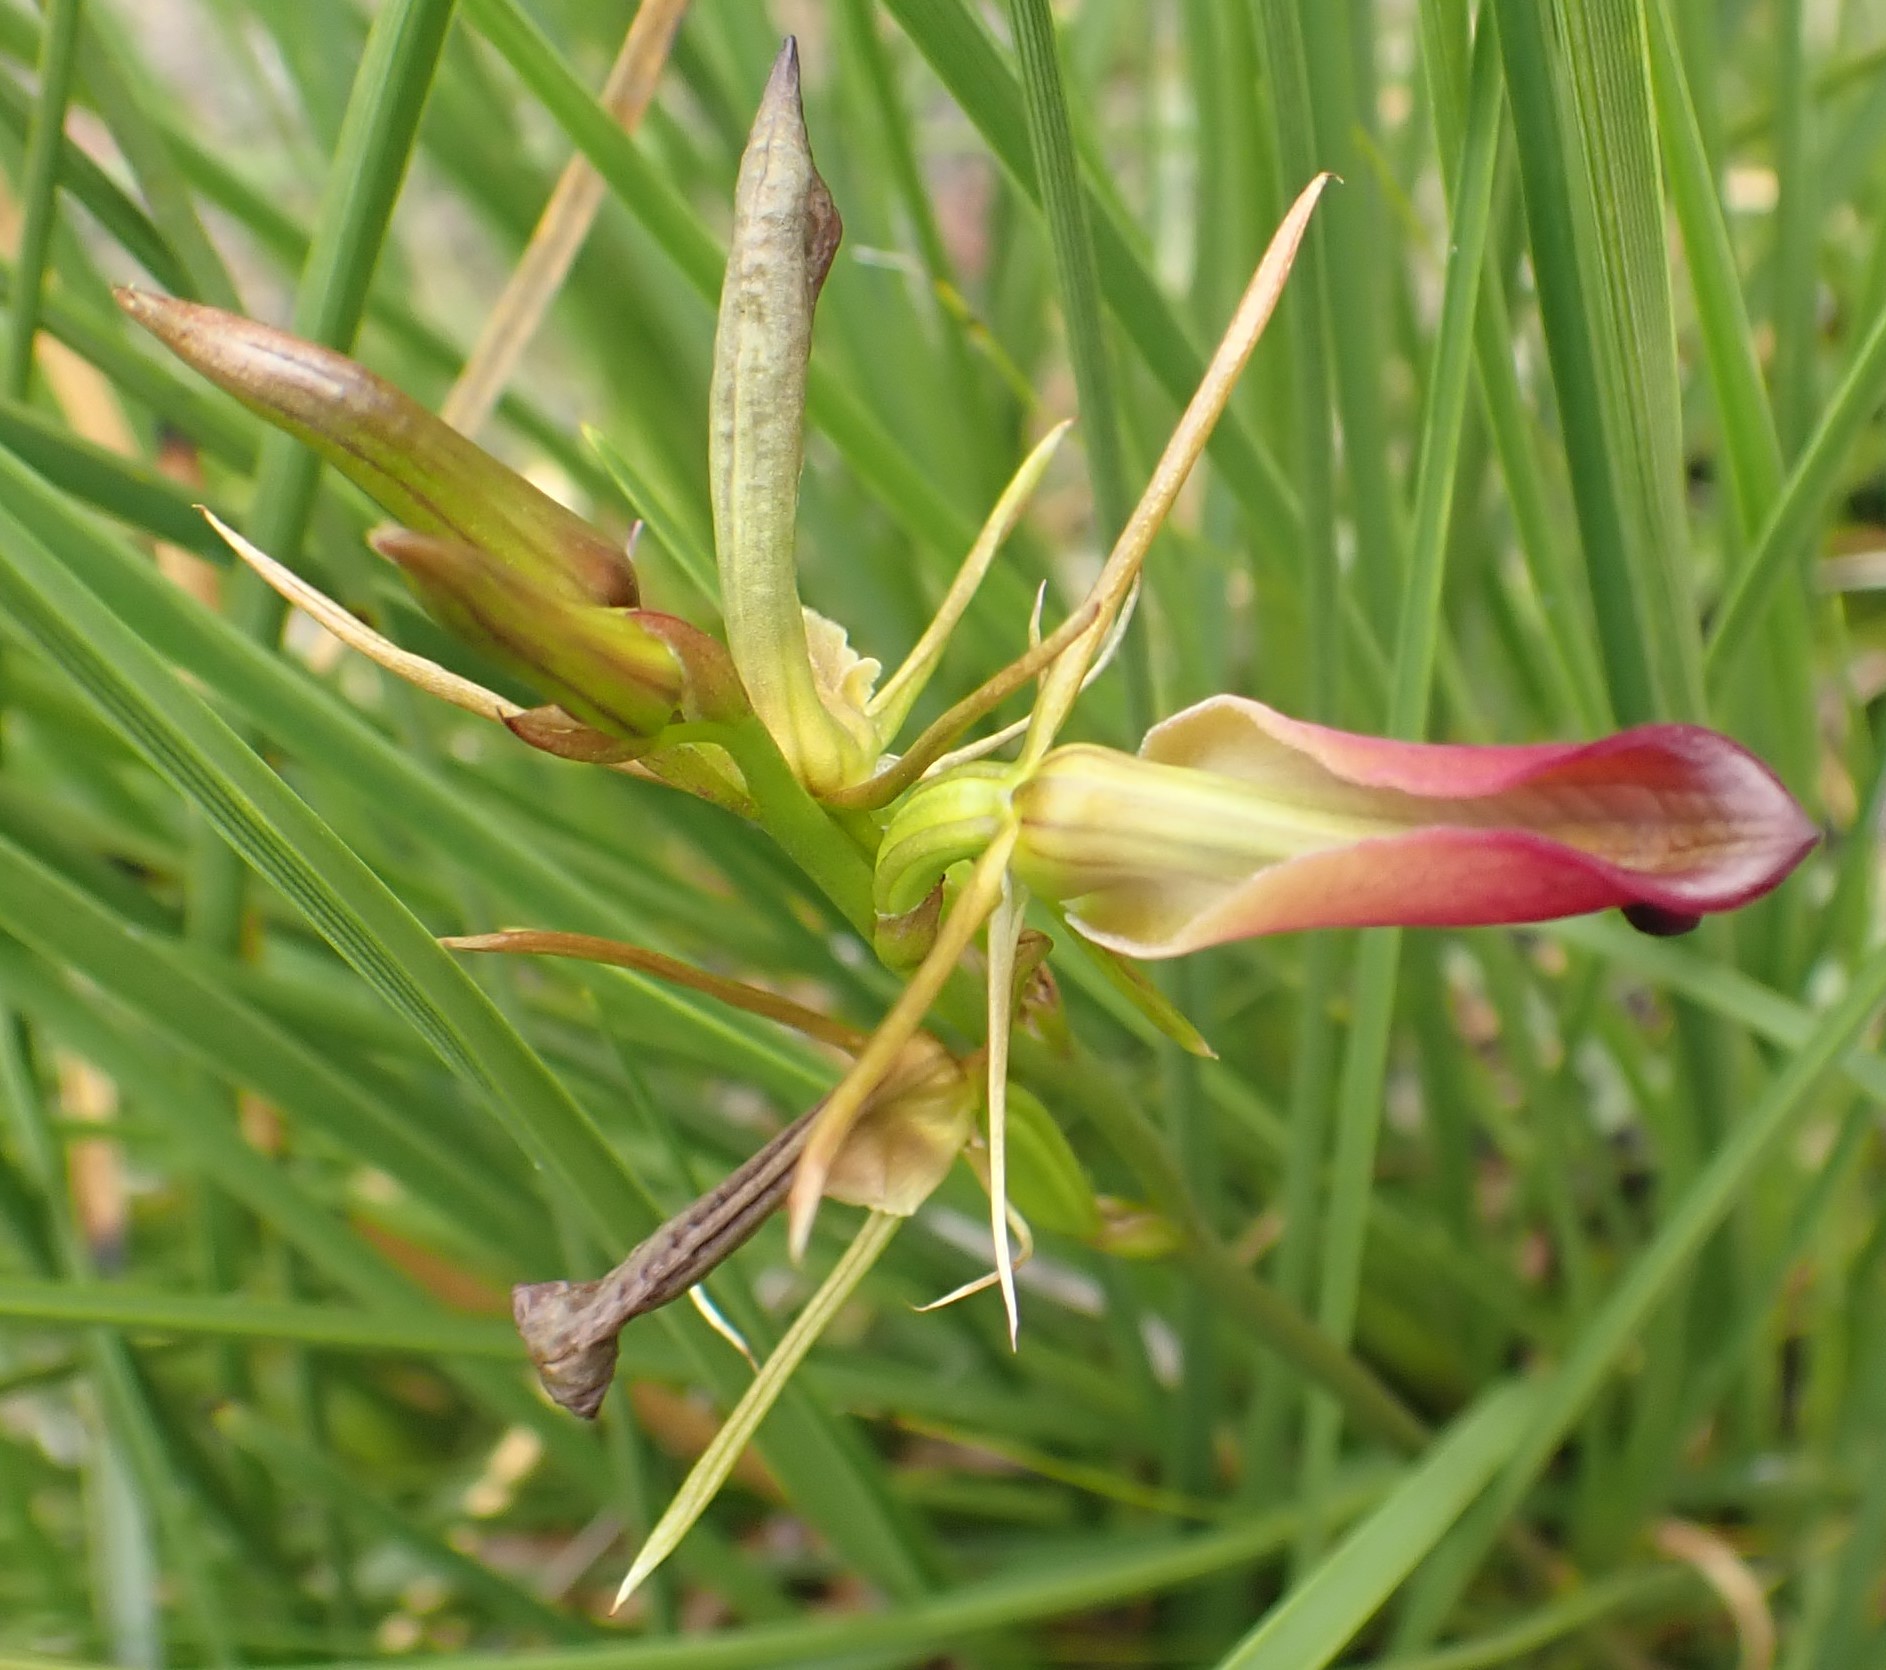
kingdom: Plantae
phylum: Tracheophyta
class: Liliopsida
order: Asparagales
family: Orchidaceae
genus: Cryptostylis
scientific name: Cryptostylis subulata
